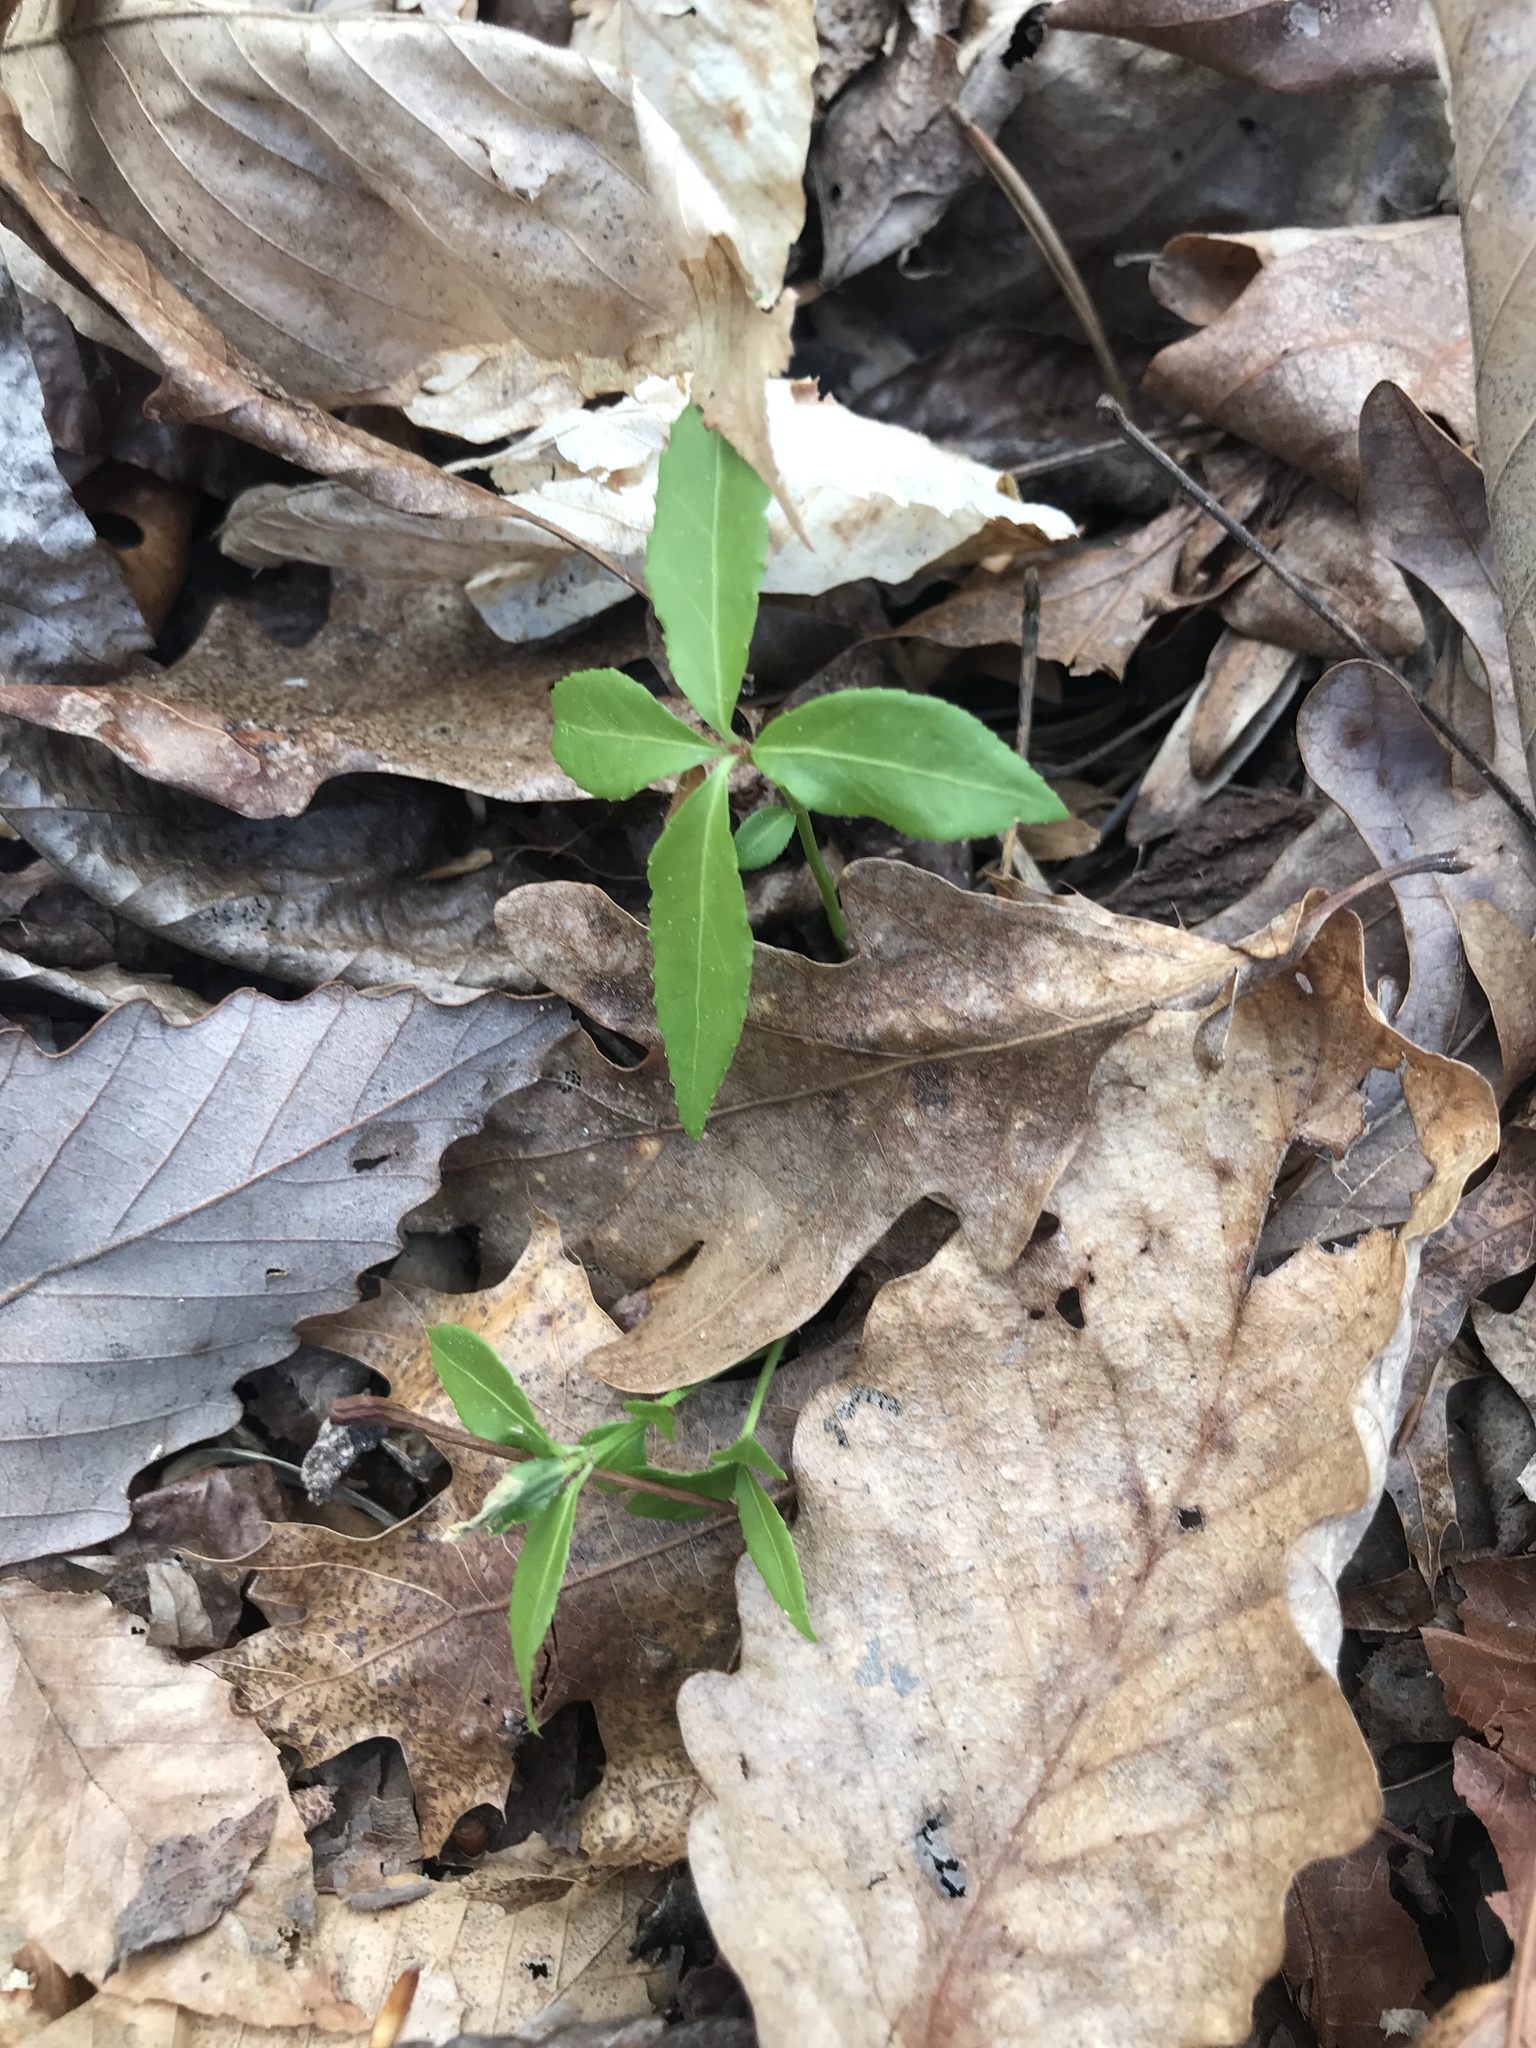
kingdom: Plantae
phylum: Tracheophyta
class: Magnoliopsida
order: Celastrales
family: Celastraceae
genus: Euonymus
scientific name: Euonymus americanus
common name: Bursting-heart
